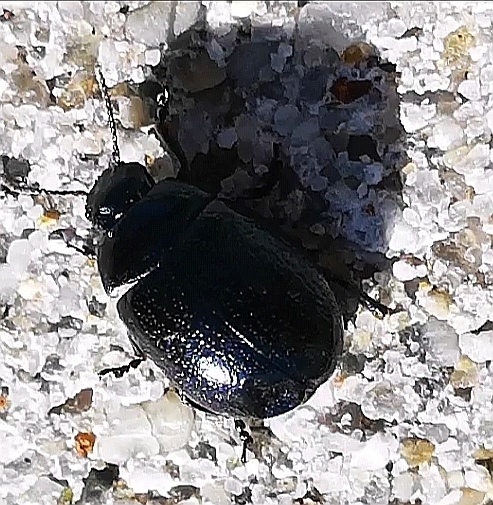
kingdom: Animalia
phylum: Arthropoda
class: Insecta
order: Coleoptera
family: Chrysomelidae
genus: Chrysolina
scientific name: Chrysolina haemoptera
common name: Plantain leaf beetle
